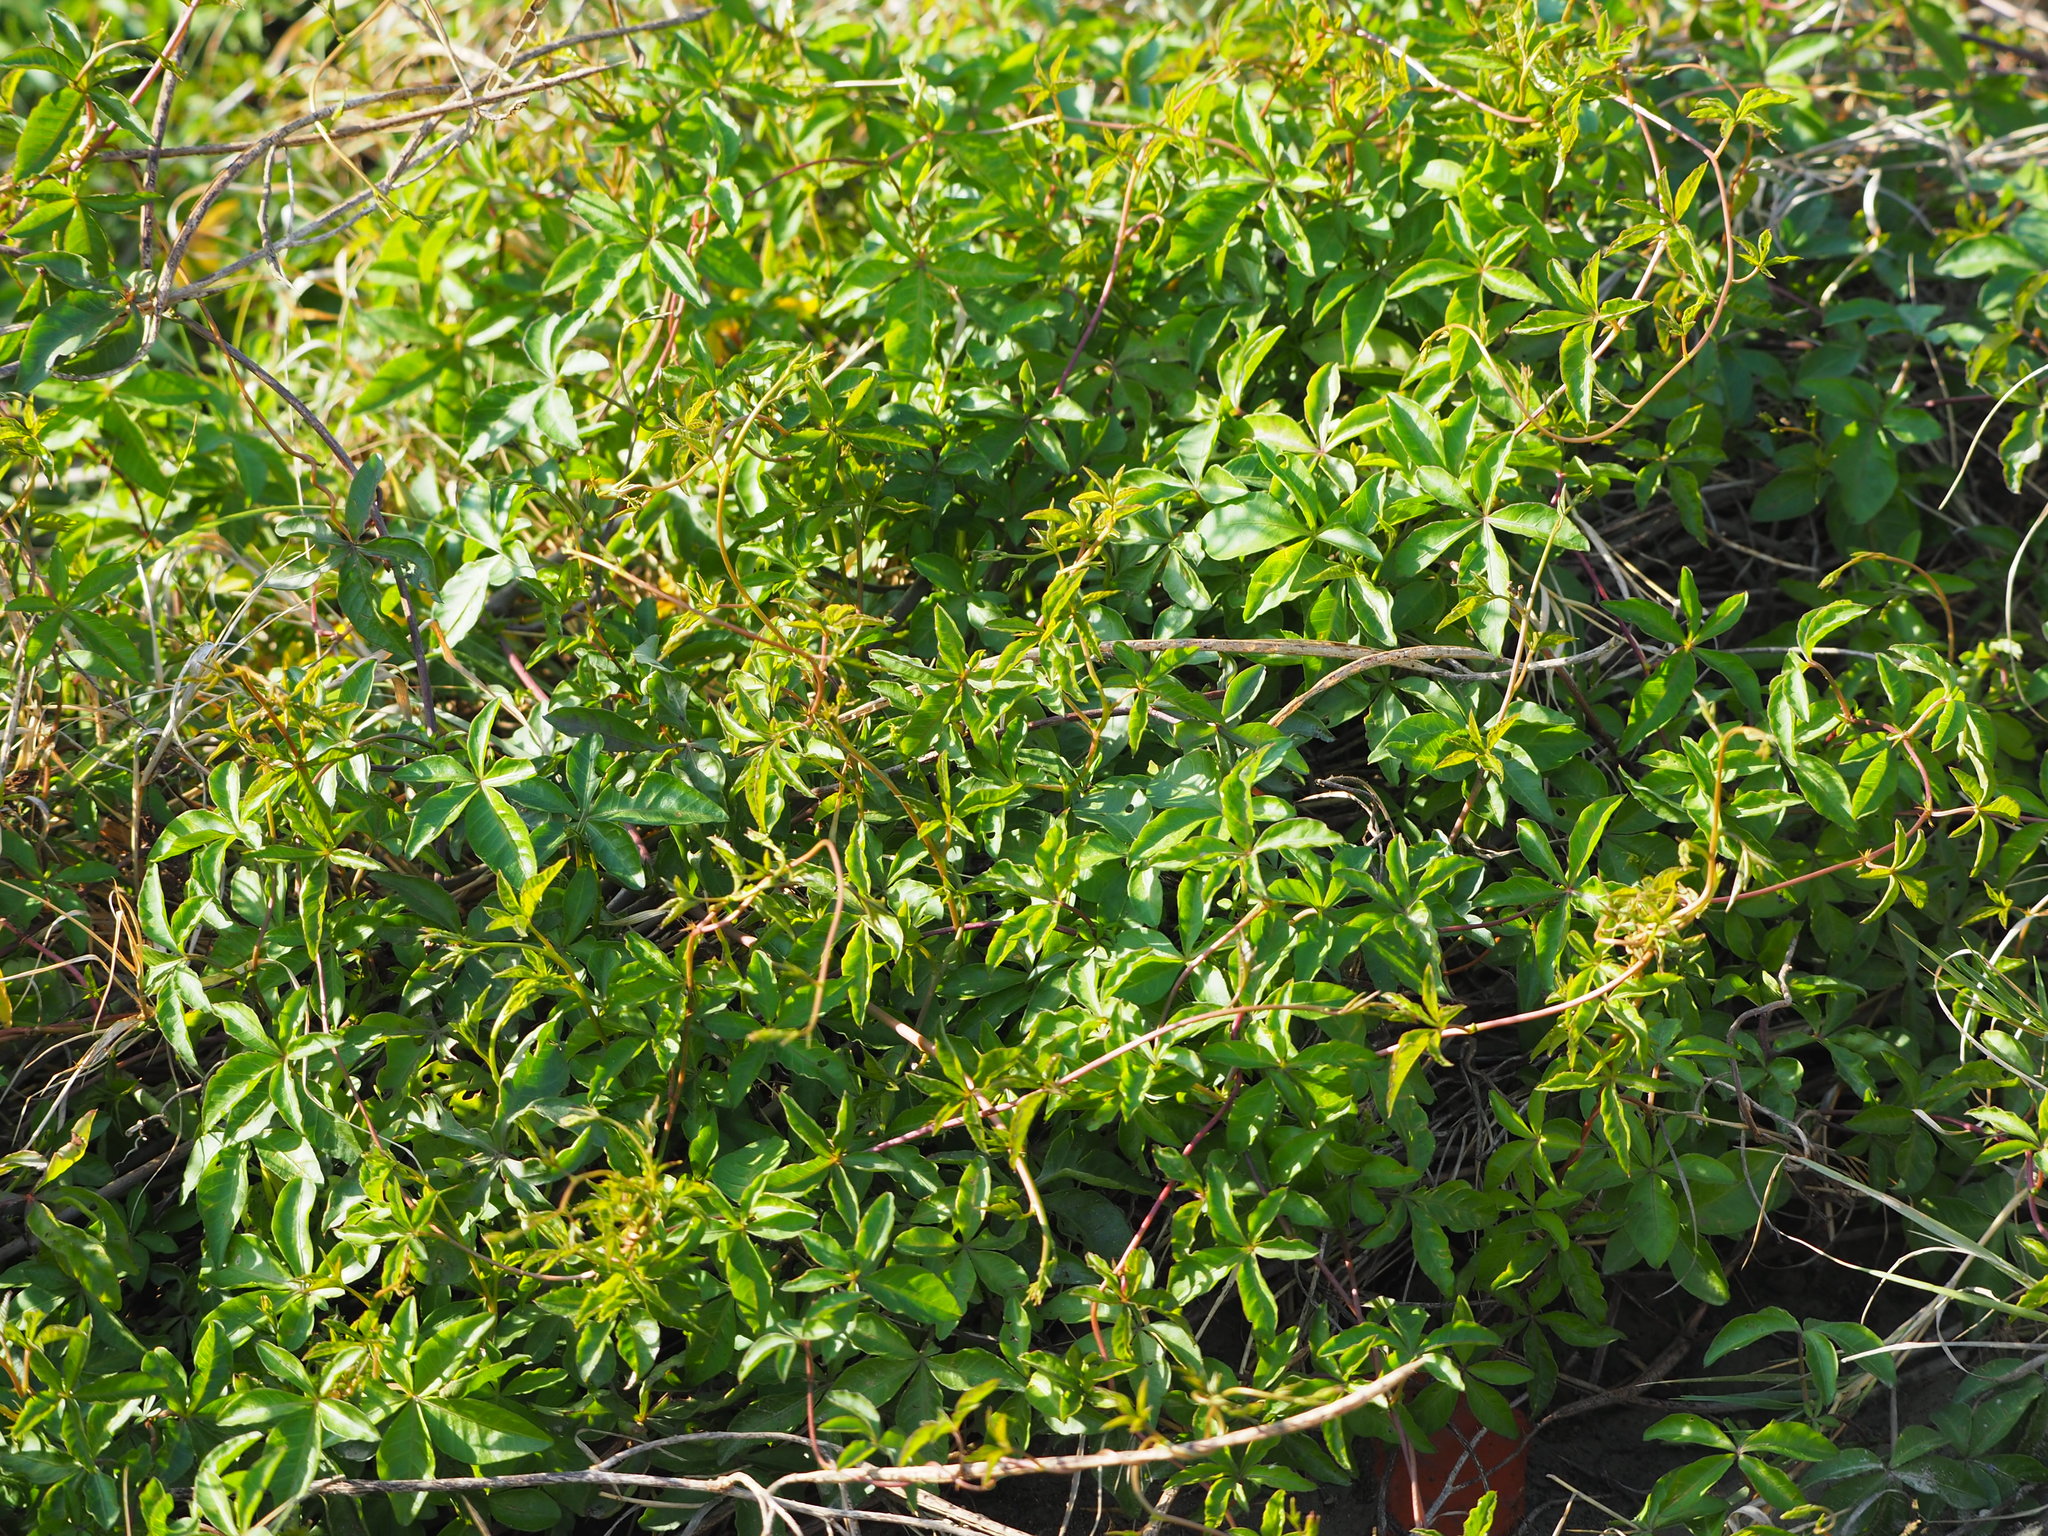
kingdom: Plantae
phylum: Tracheophyta
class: Magnoliopsida
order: Solanales
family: Convolvulaceae
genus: Ipomoea
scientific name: Ipomoea cairica
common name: Mile a minute vine
